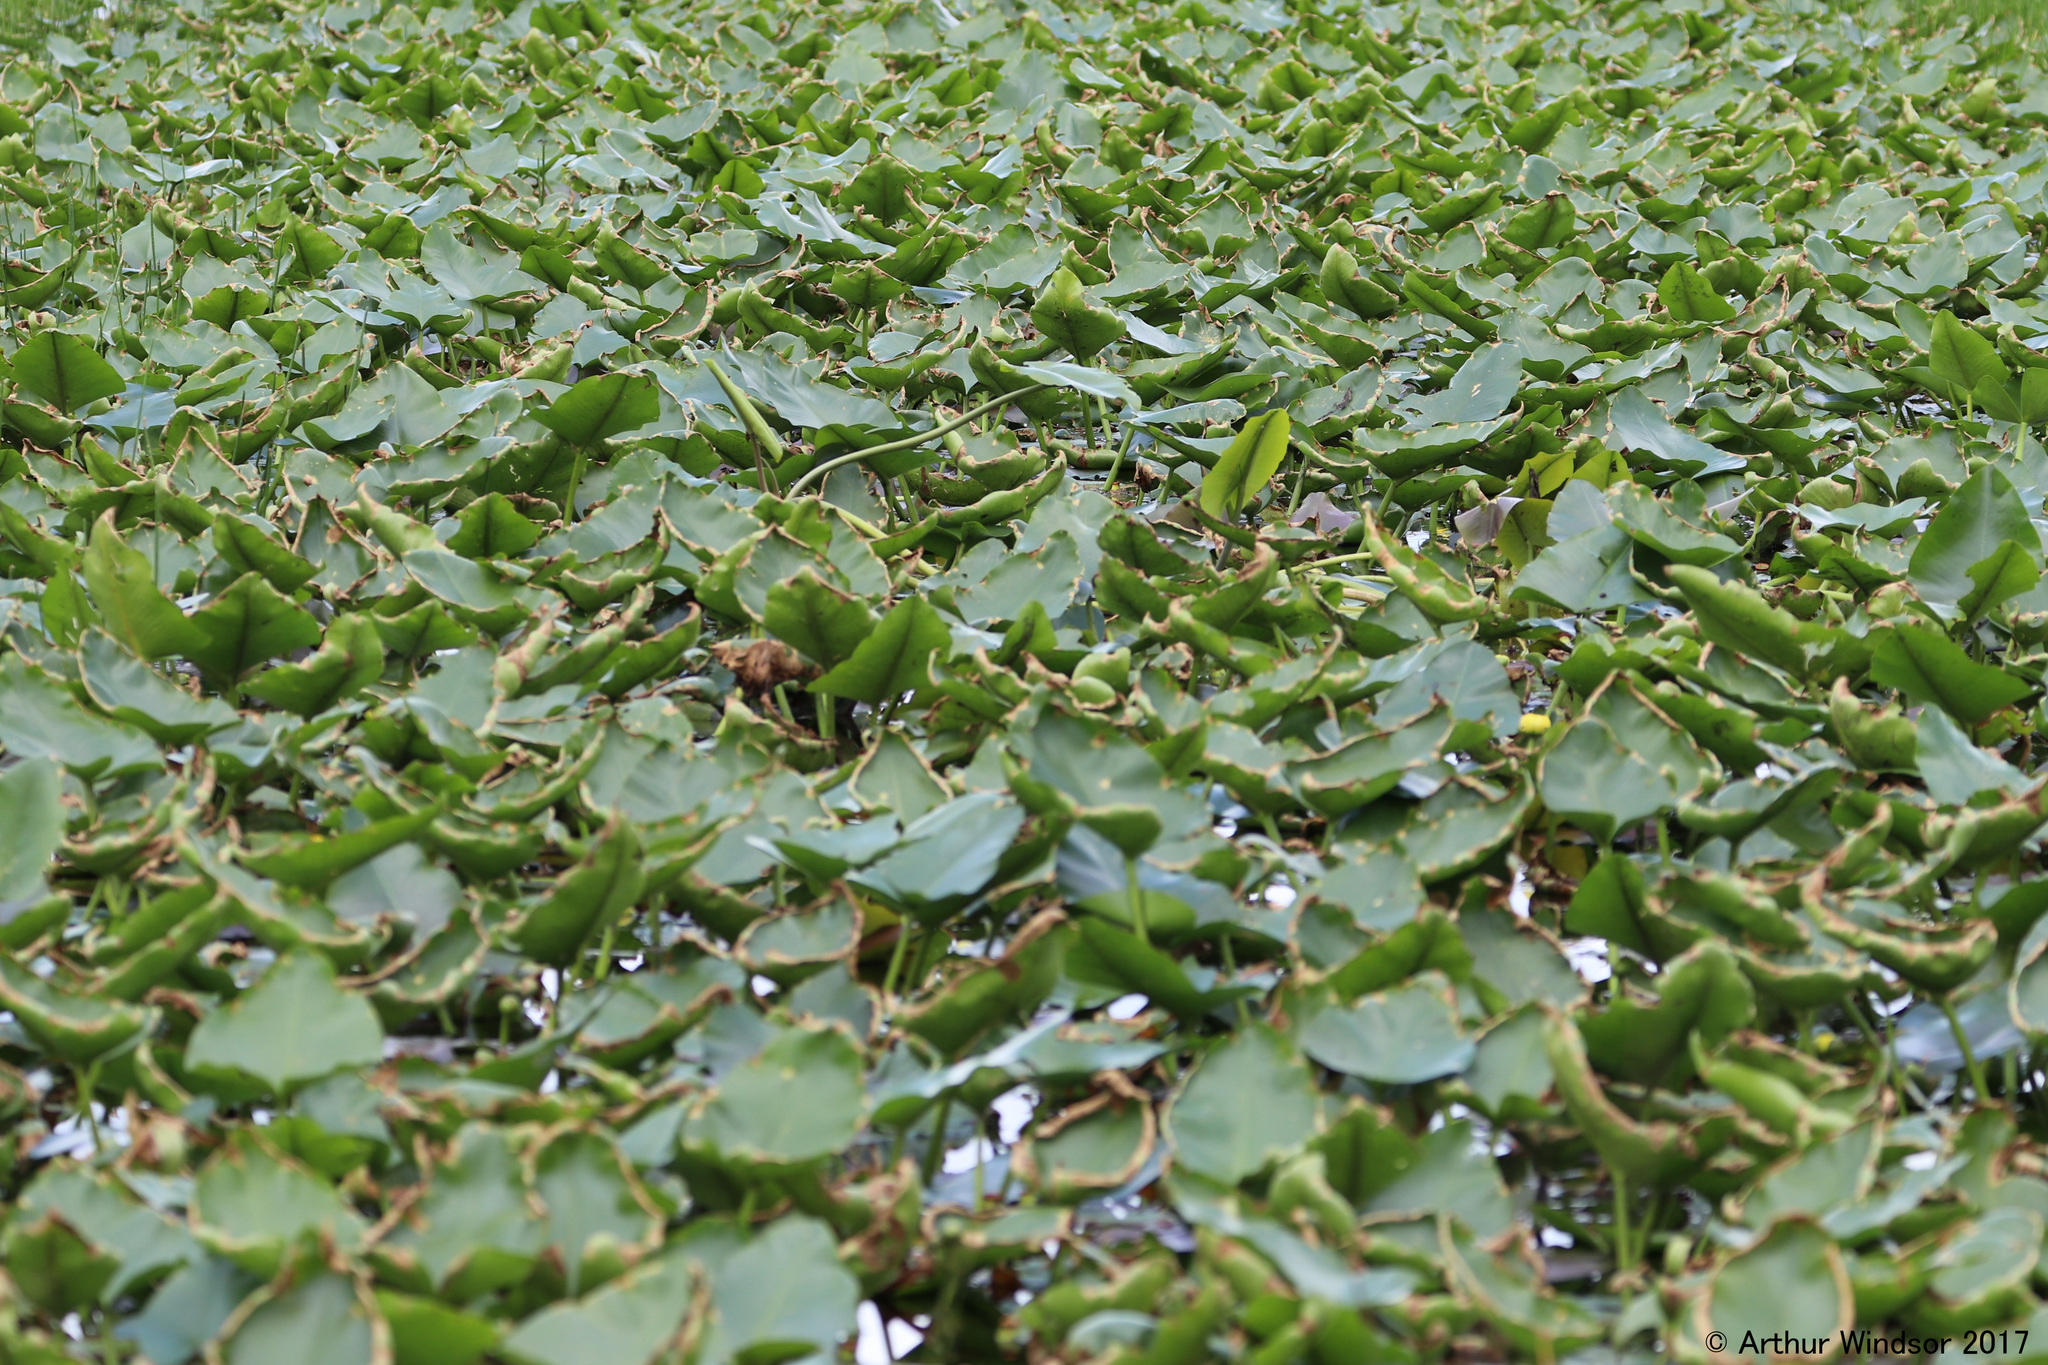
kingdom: Plantae
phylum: Tracheophyta
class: Magnoliopsida
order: Nymphaeales
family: Nymphaeaceae
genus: Nuphar
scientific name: Nuphar advena
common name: Spatter-dock
